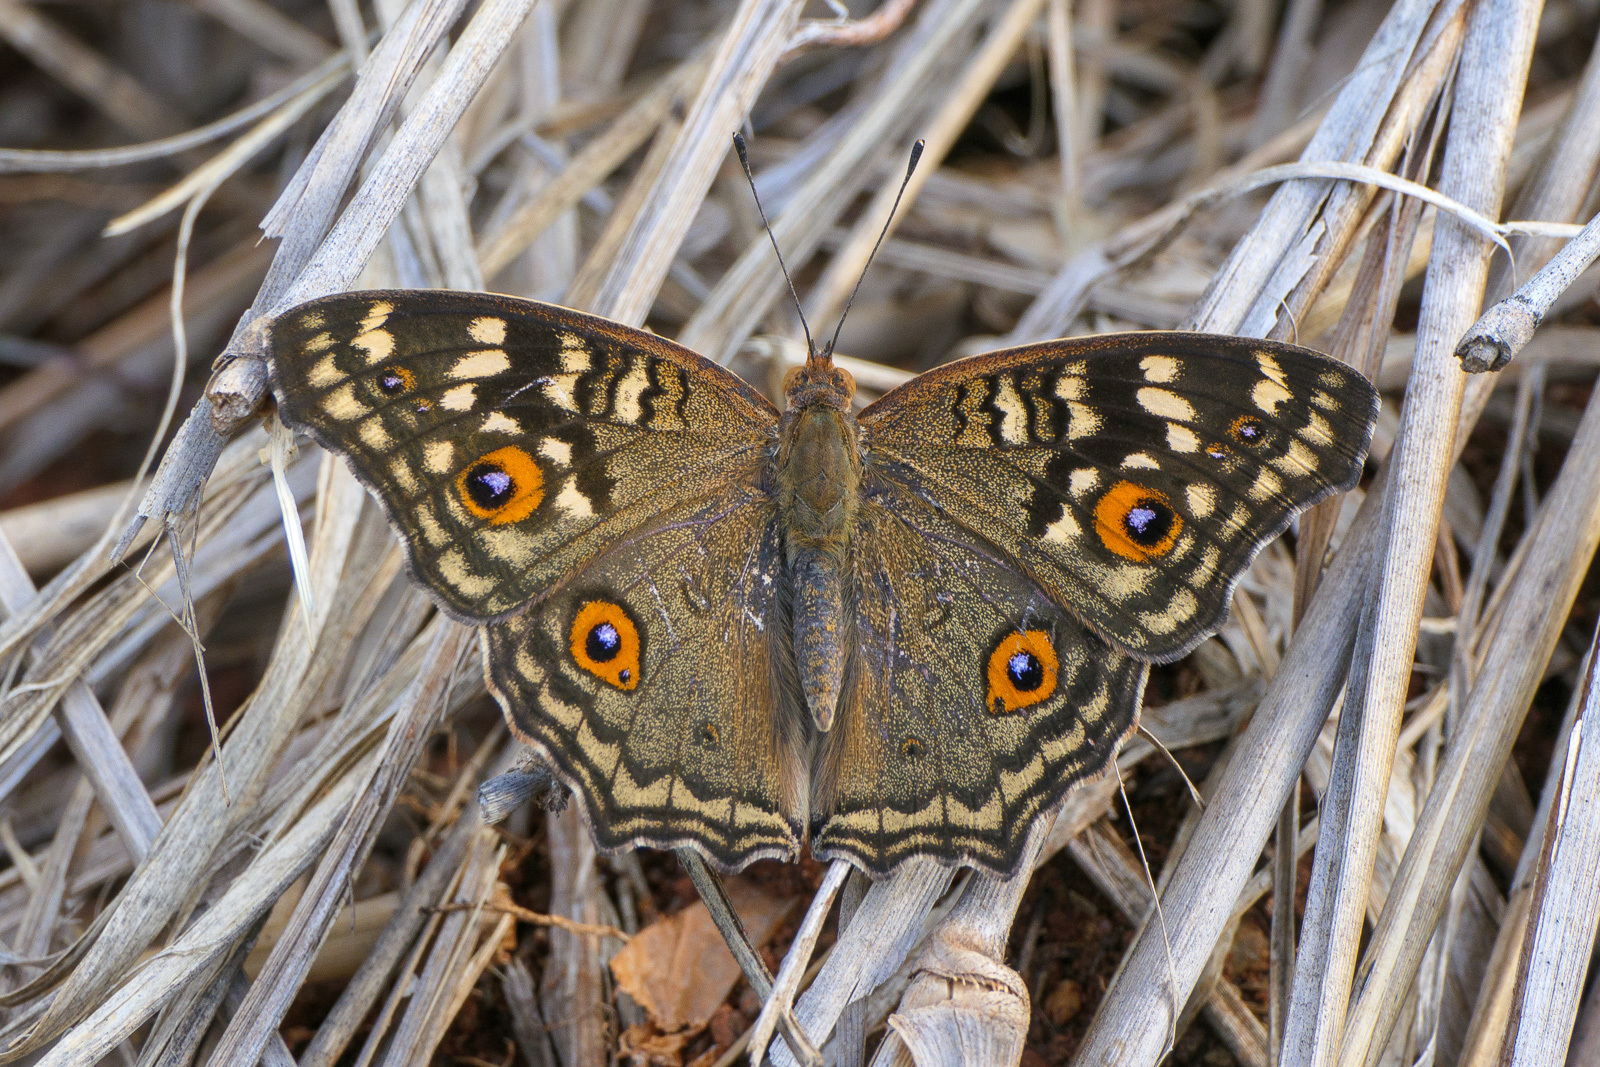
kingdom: Animalia
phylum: Arthropoda
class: Insecta
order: Lepidoptera
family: Nymphalidae
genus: Junonia
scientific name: Junonia lemonias
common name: Lemon pansy
